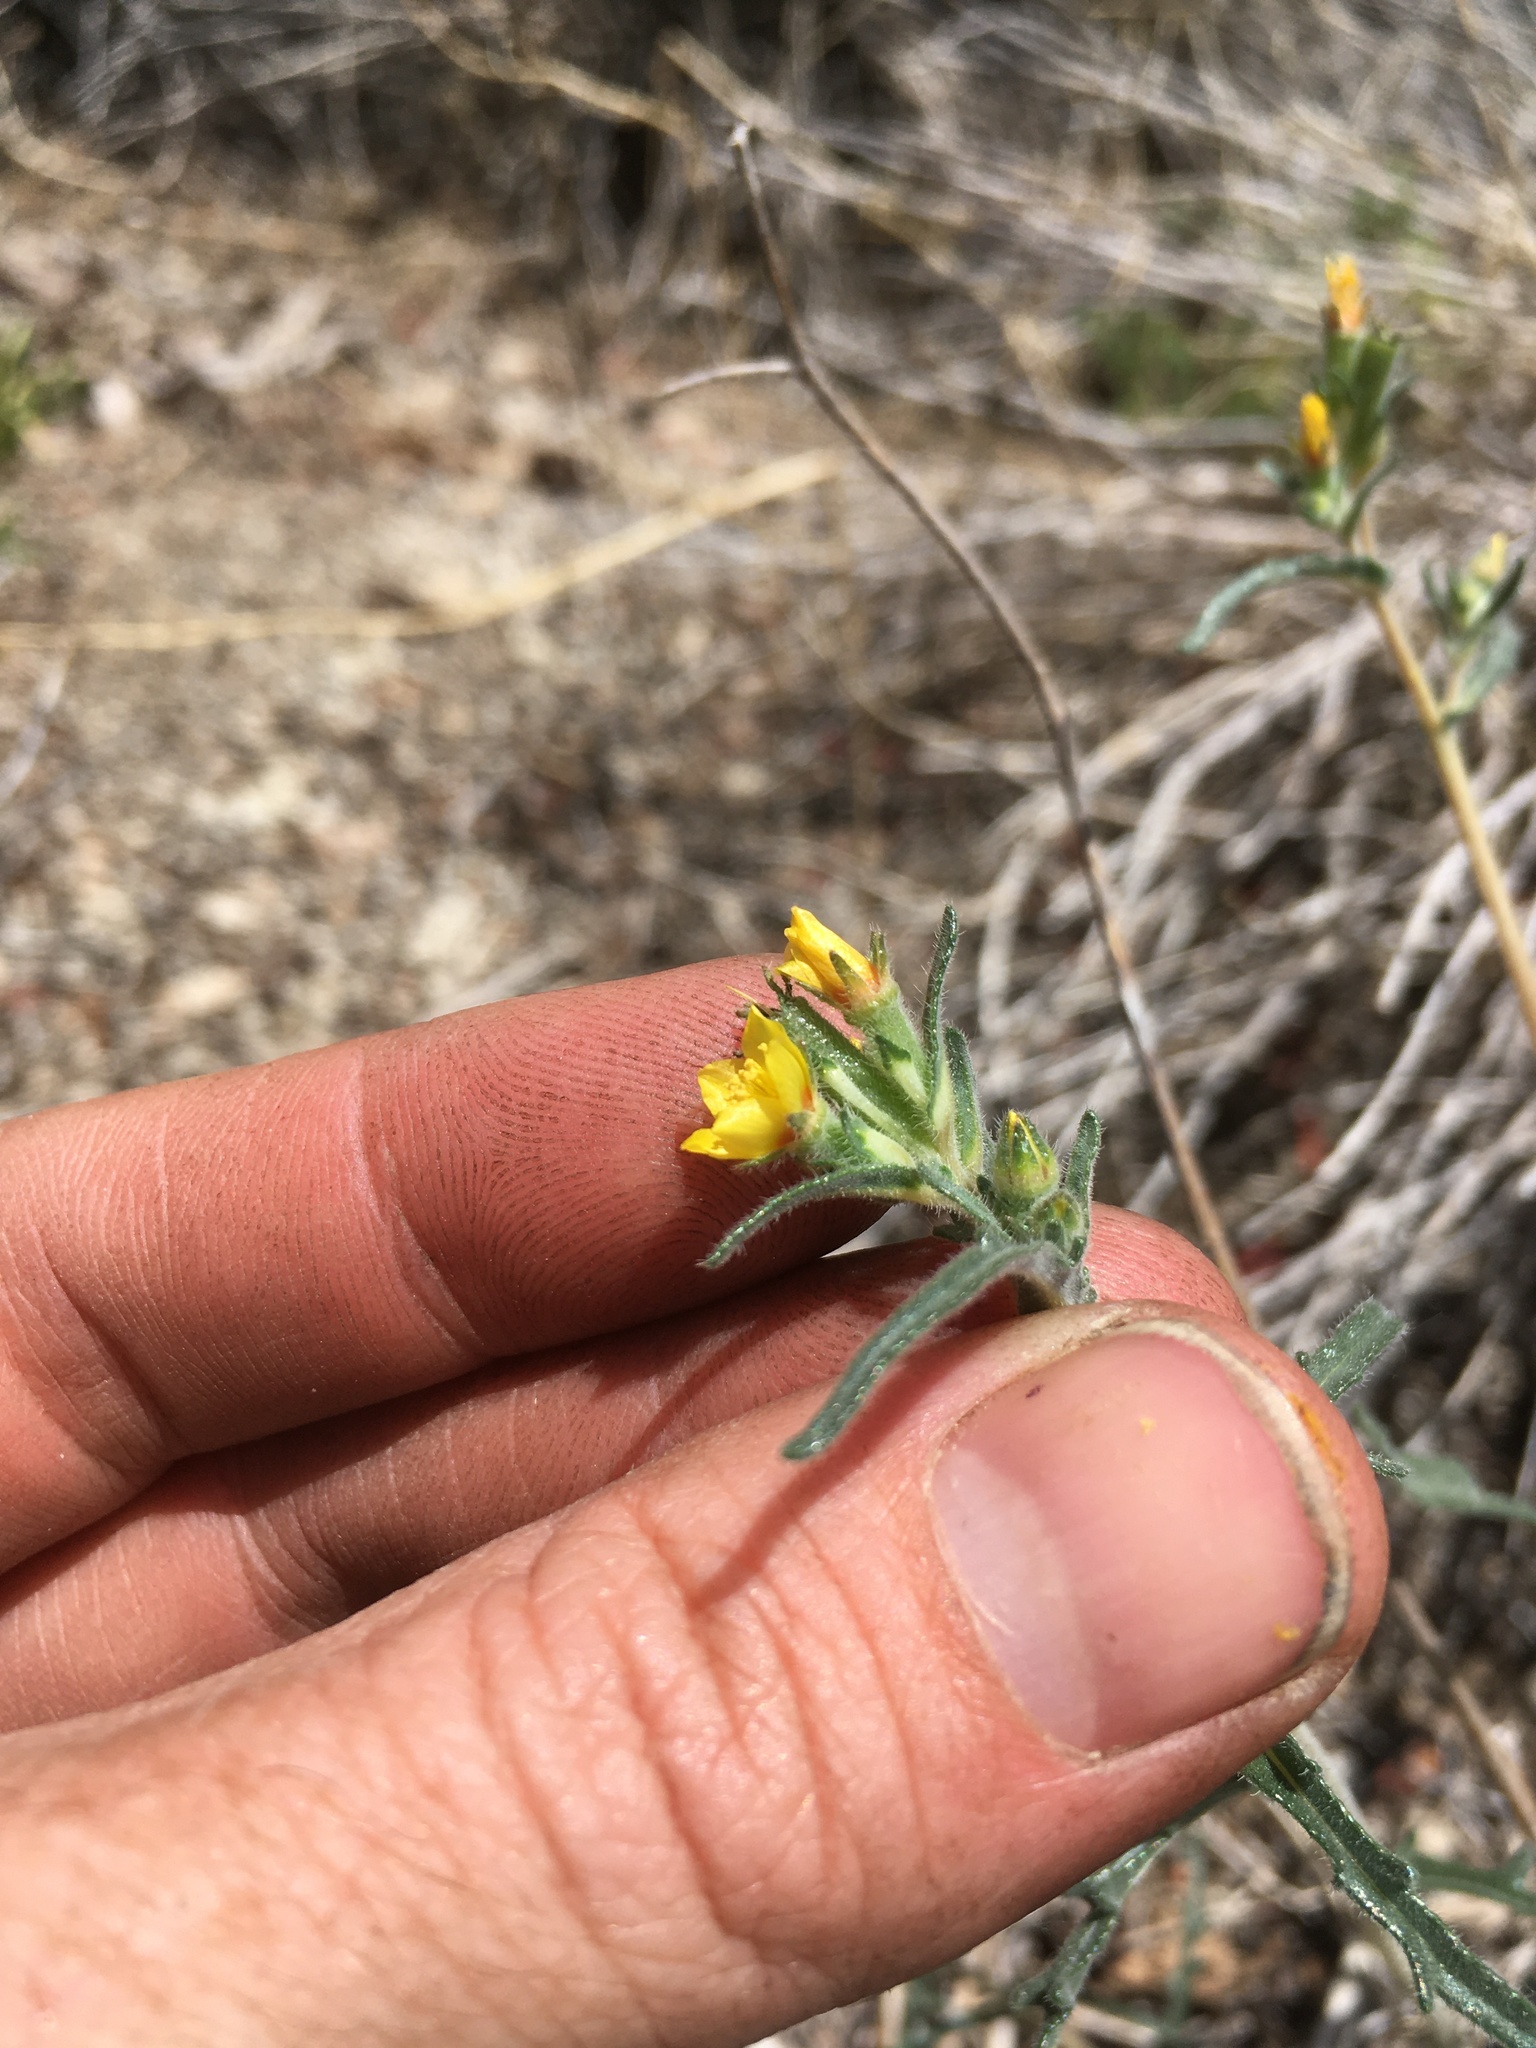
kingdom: Plantae
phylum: Tracheophyta
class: Magnoliopsida
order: Cornales
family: Loasaceae
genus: Mentzelia
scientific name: Mentzelia montana
